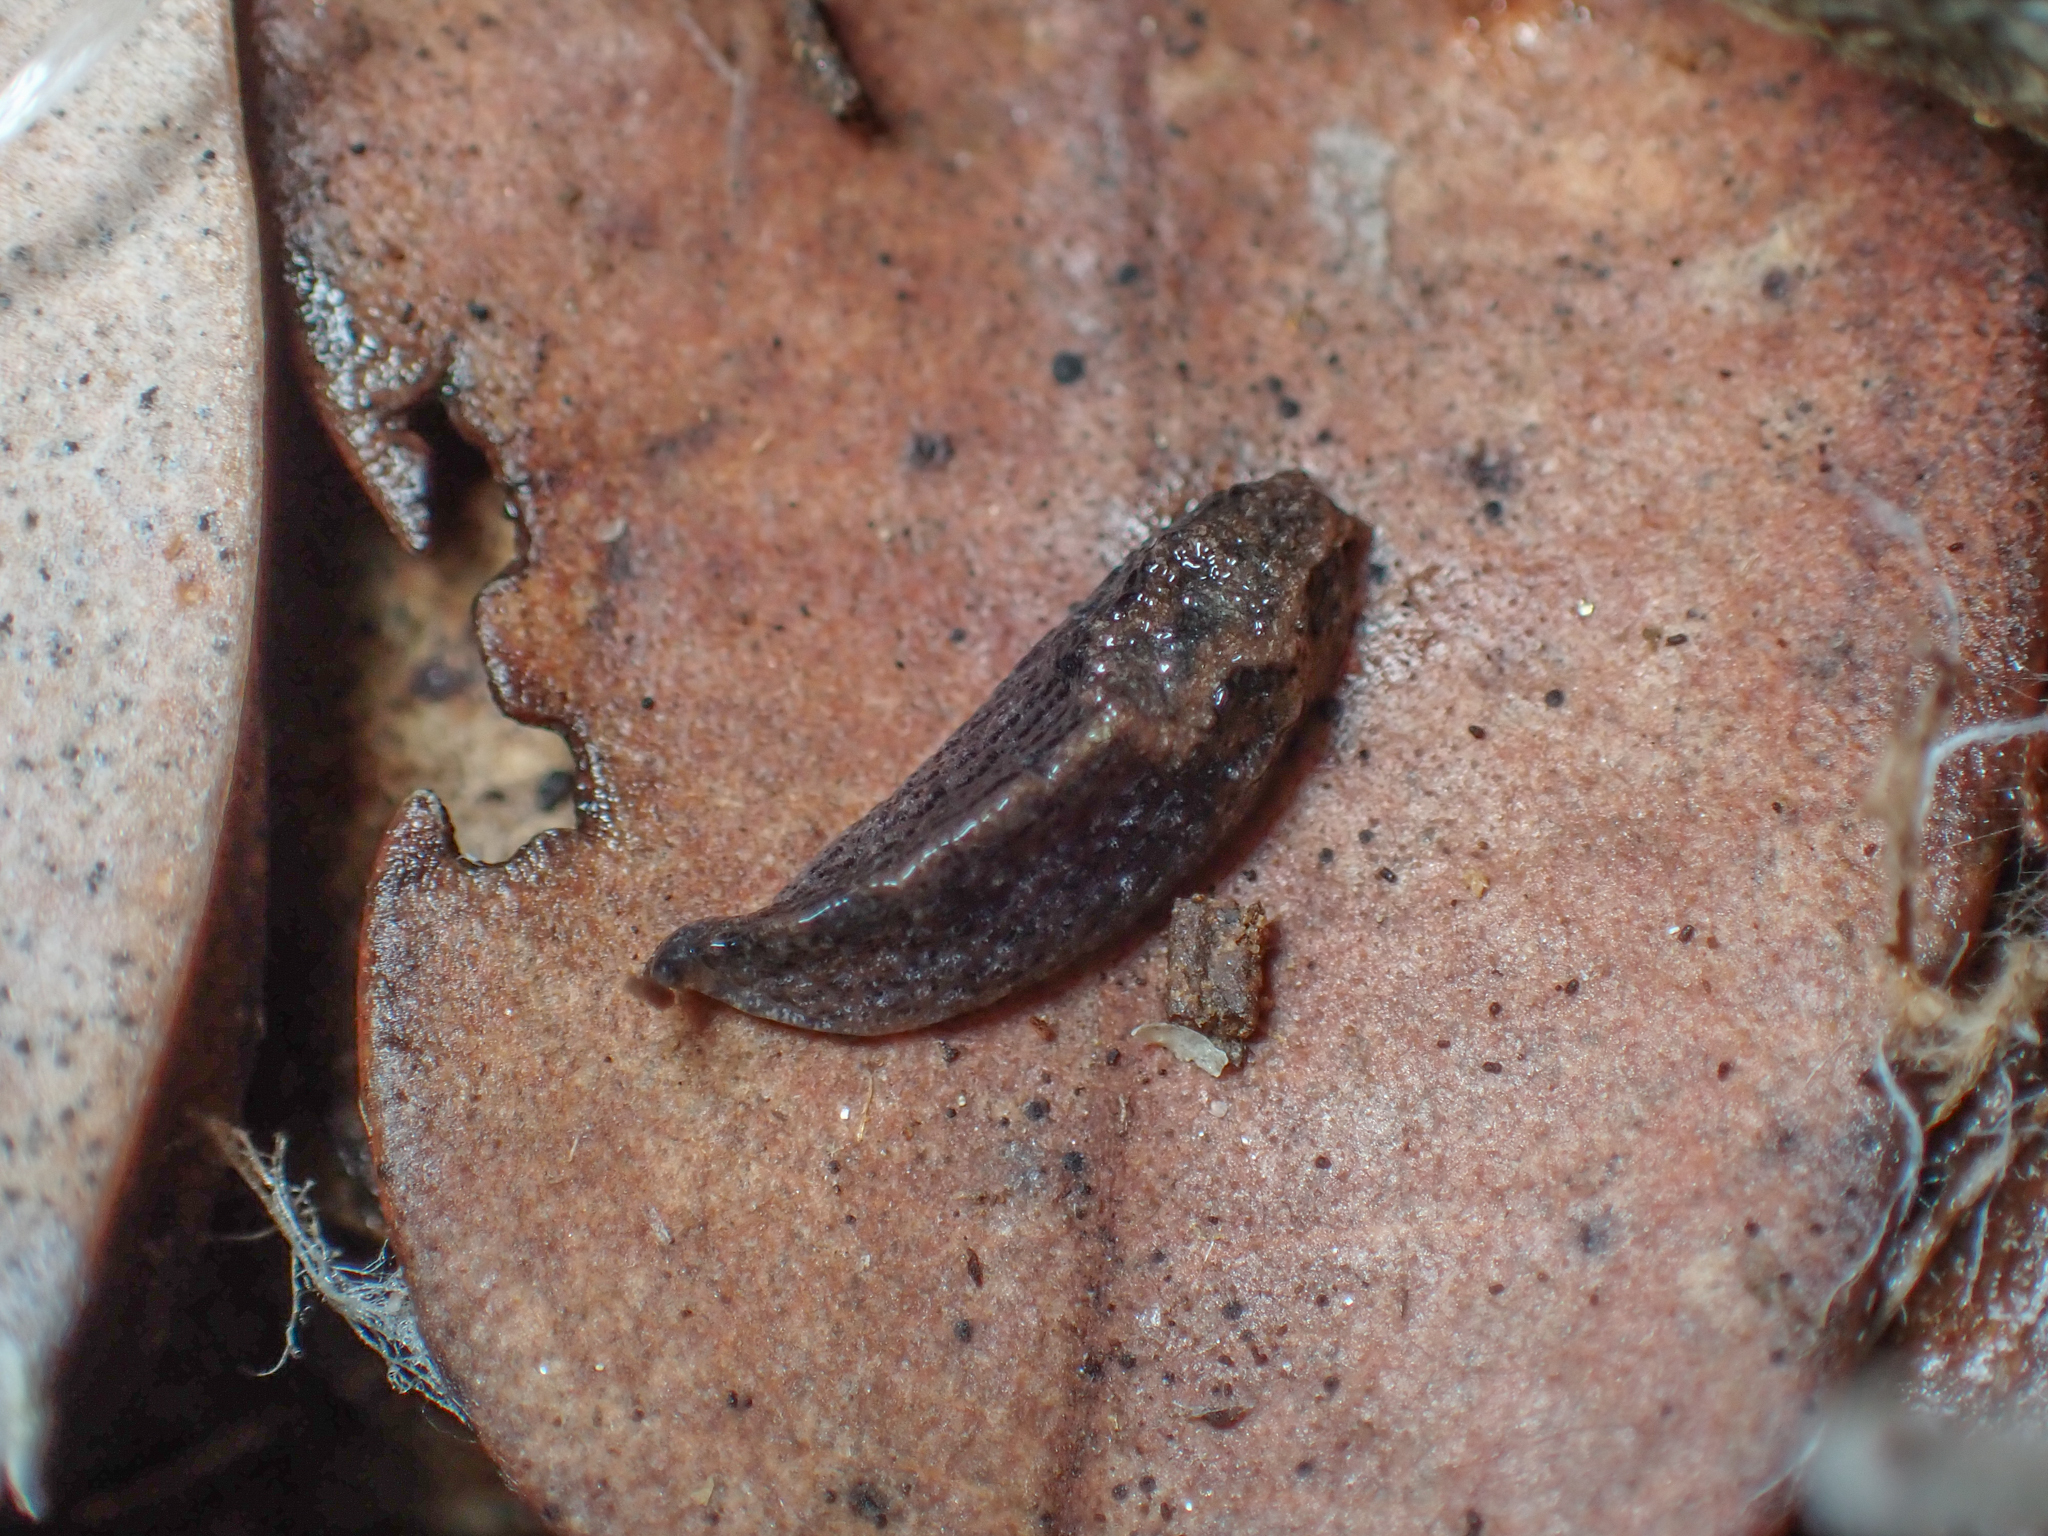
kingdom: Animalia
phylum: Mollusca
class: Gastropoda
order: Stylommatophora
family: Ariolimacidae
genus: Anadenulus
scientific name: Anadenulus cockerelli
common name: American keeled slug
